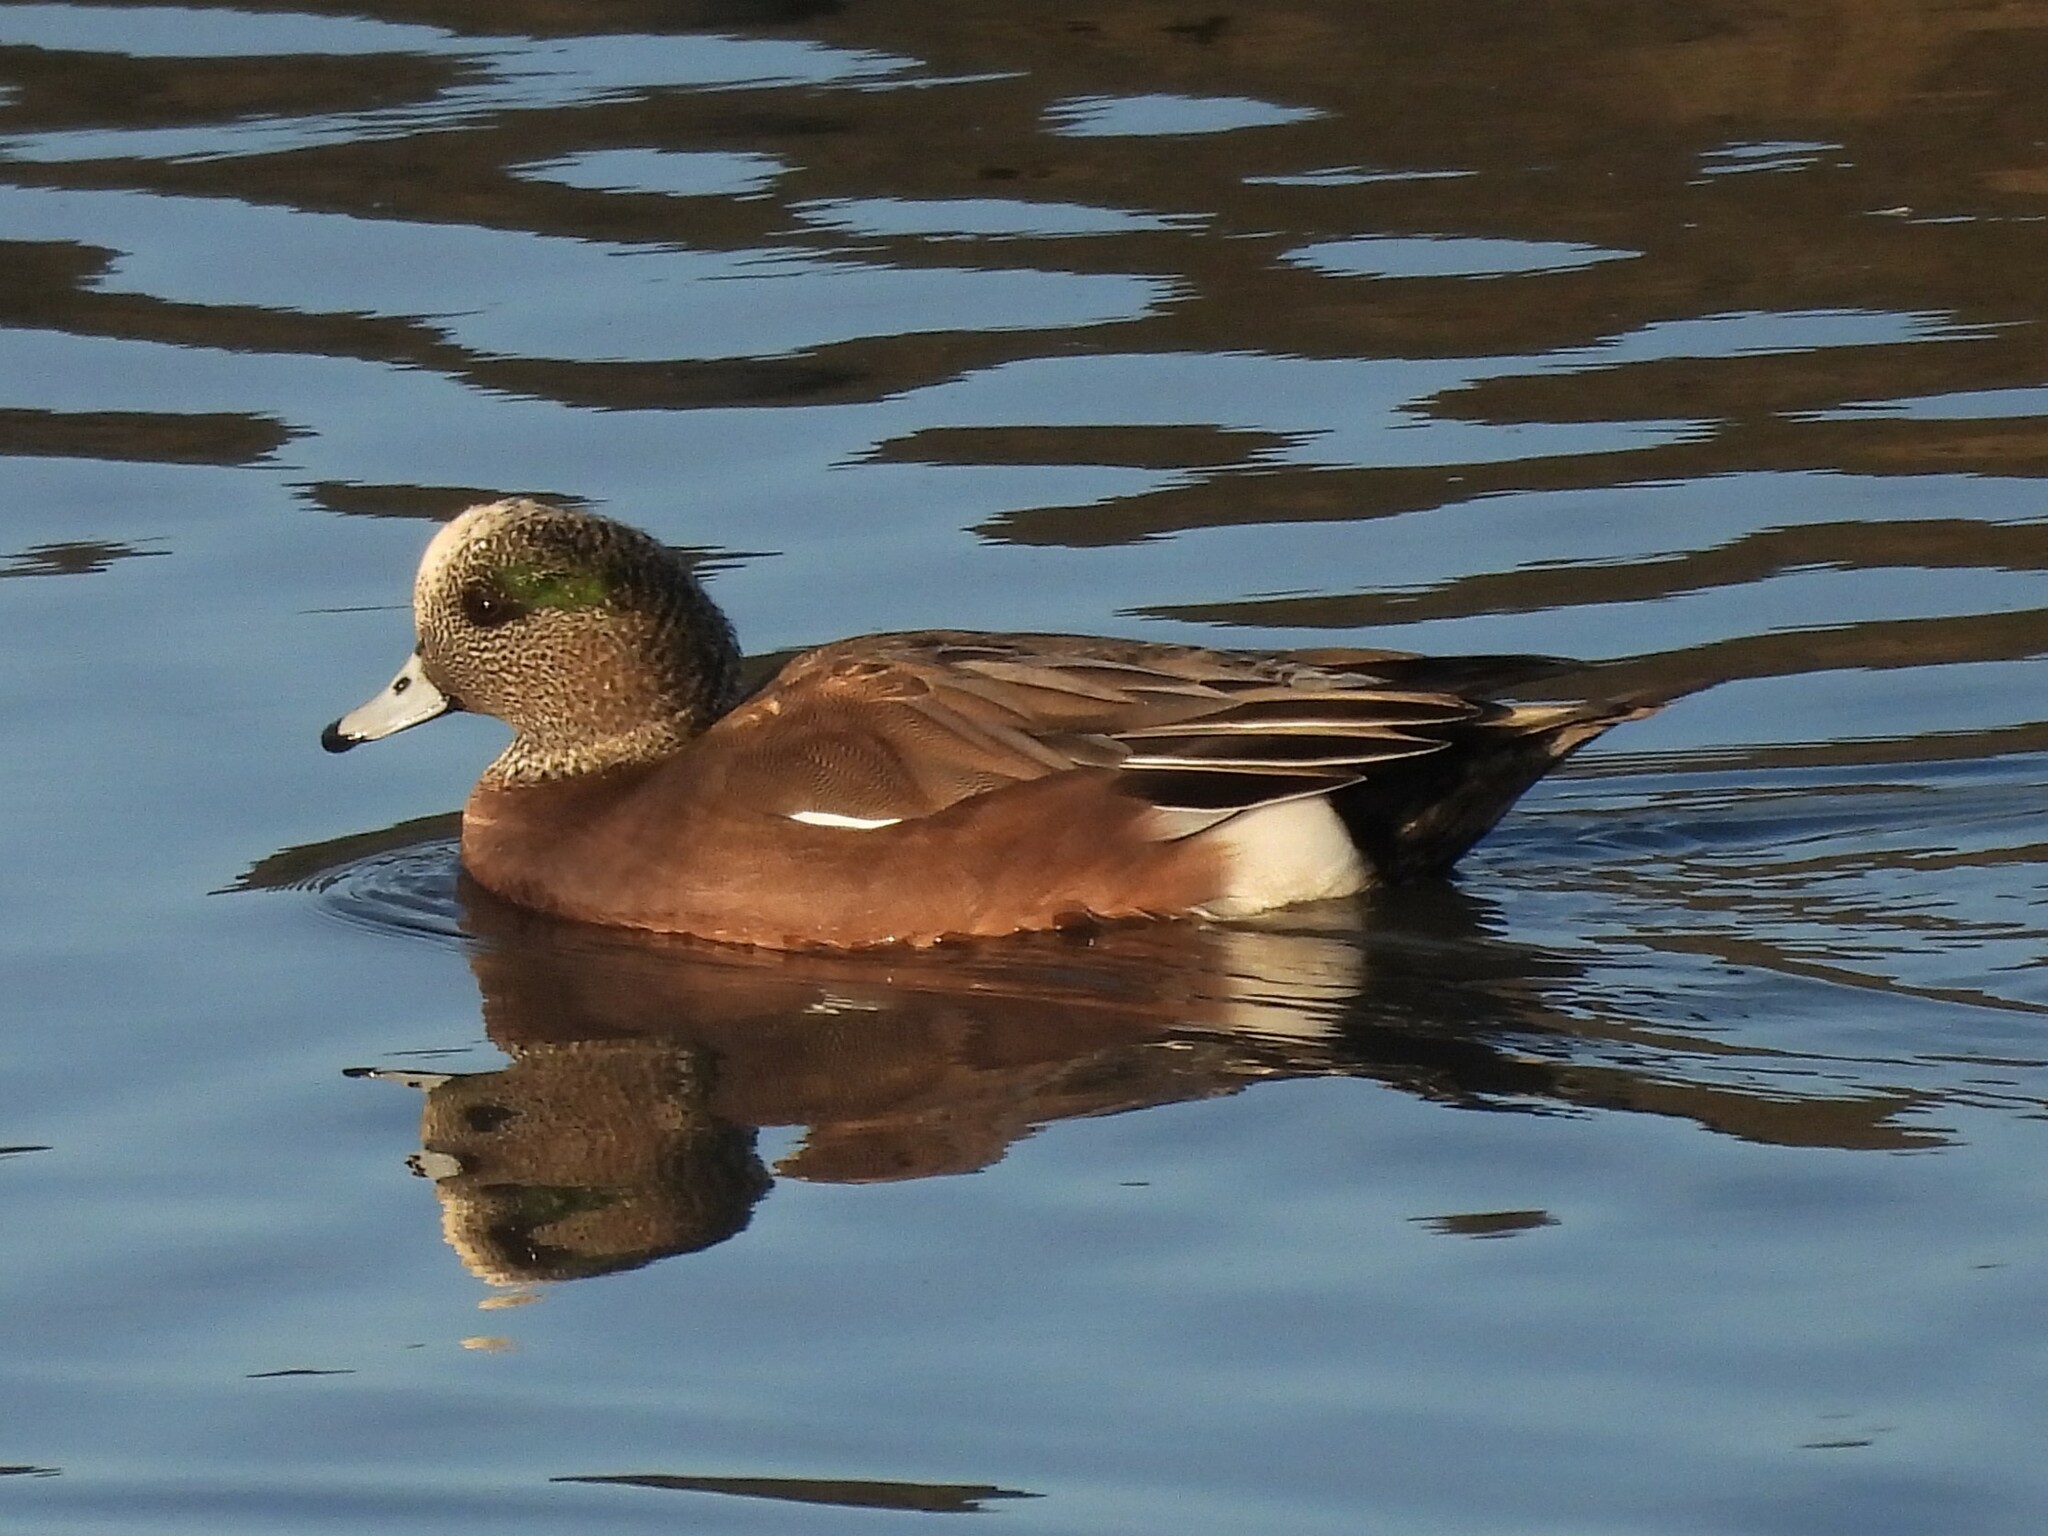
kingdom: Animalia
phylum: Chordata
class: Aves
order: Anseriformes
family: Anatidae
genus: Mareca
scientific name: Mareca americana
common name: American wigeon
